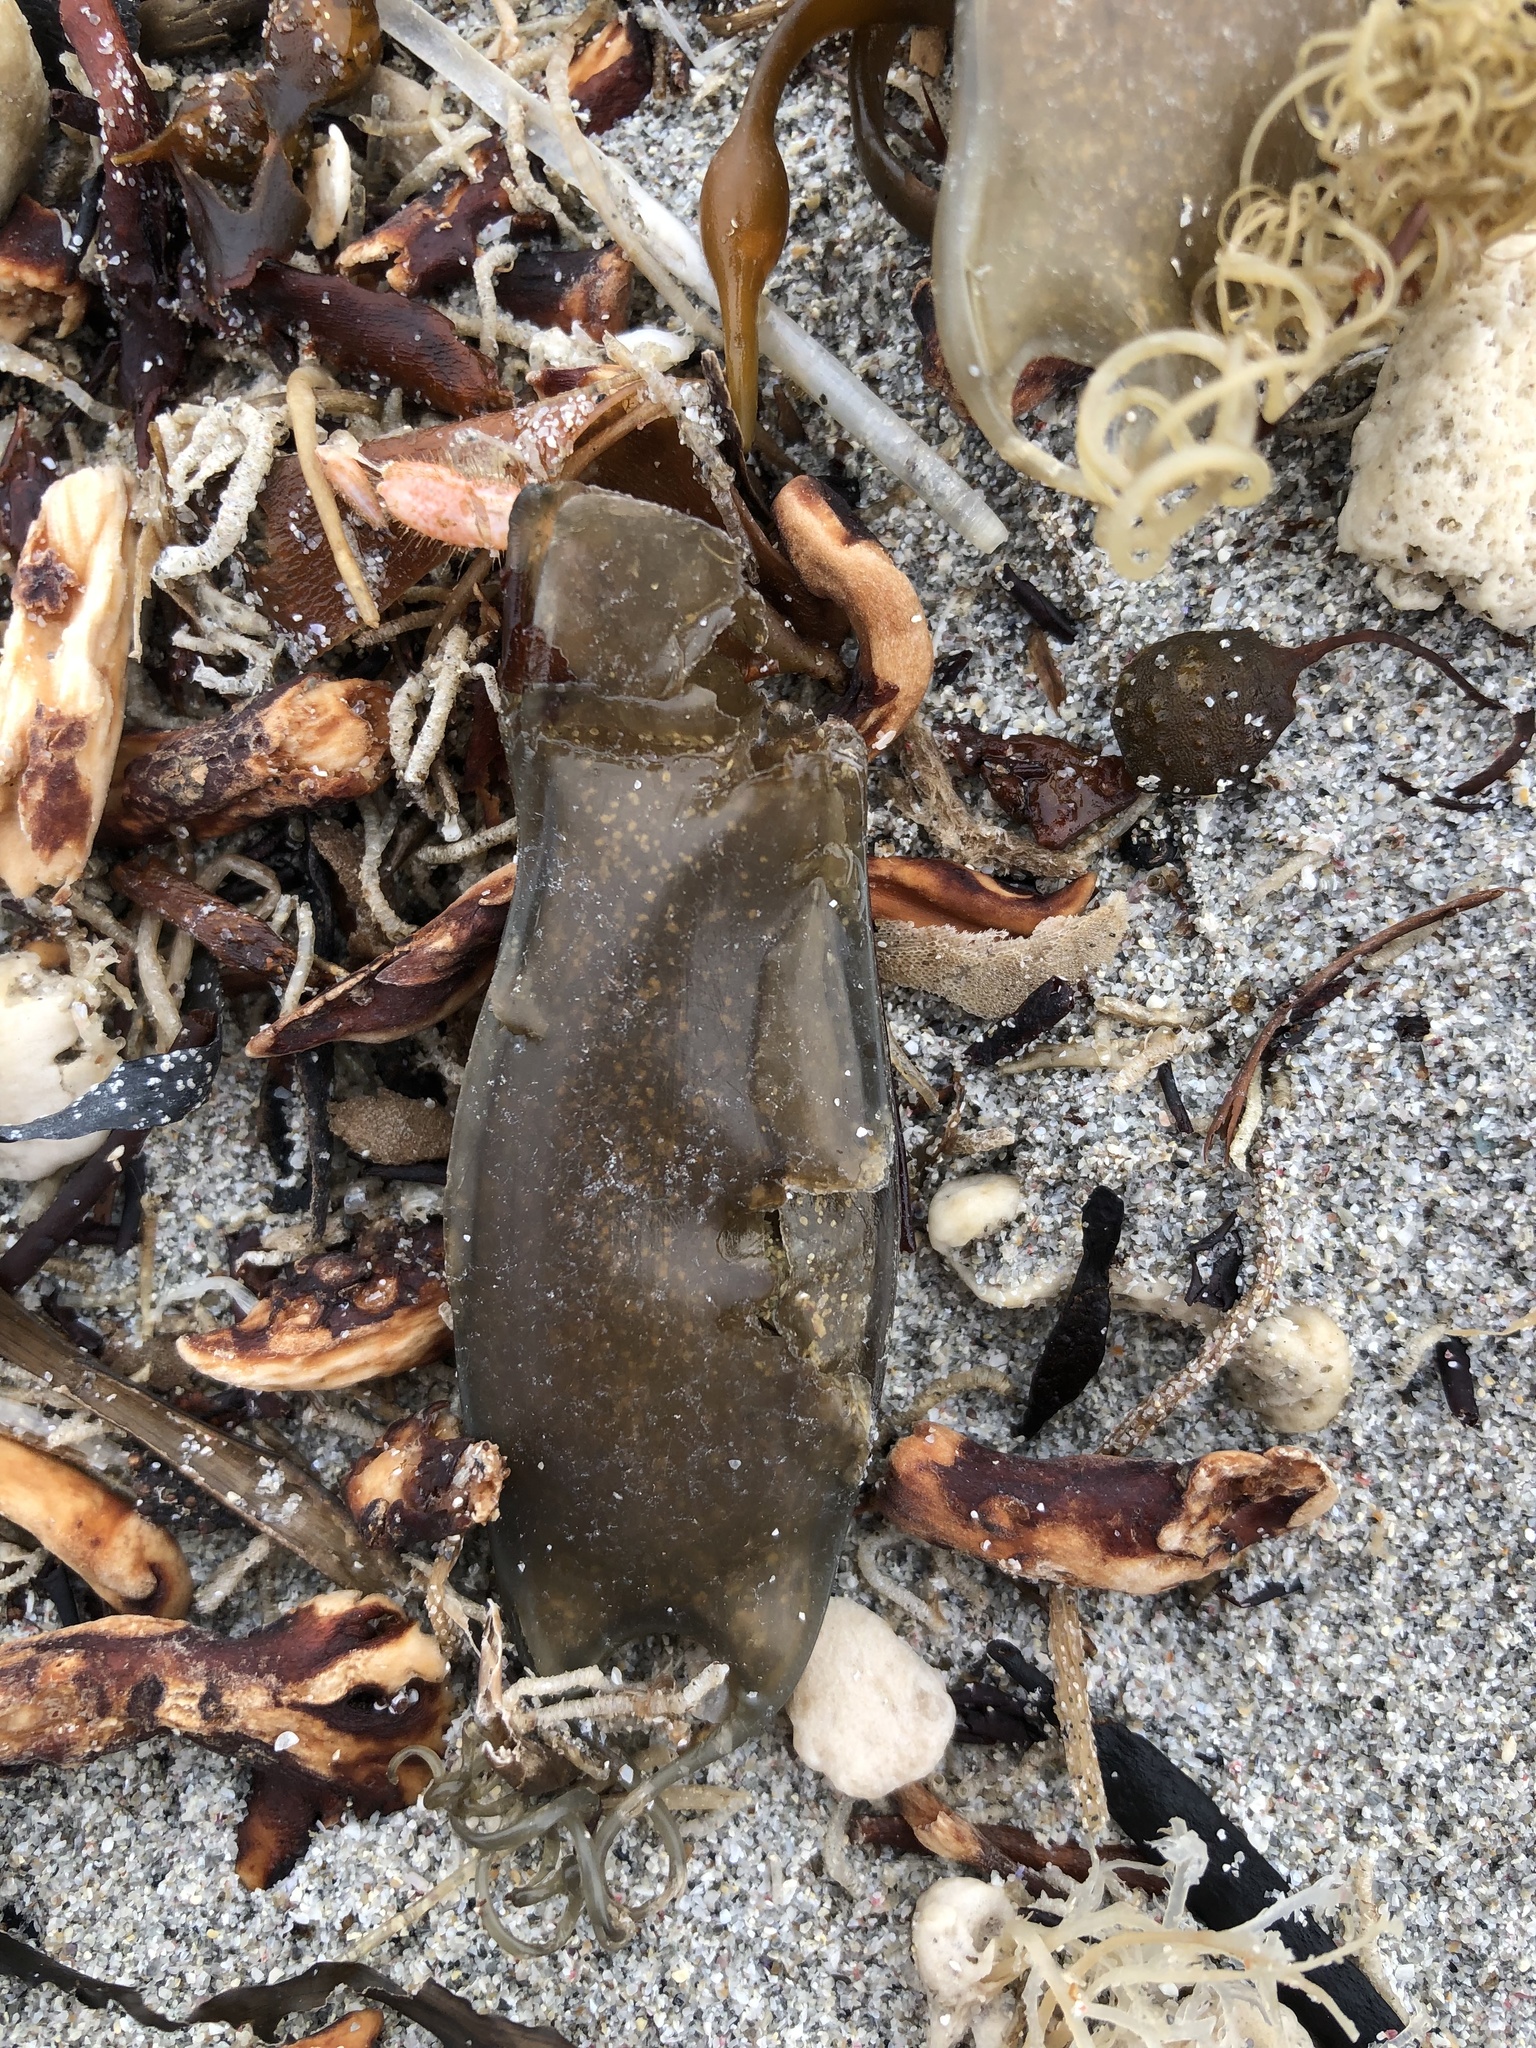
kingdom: Animalia
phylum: Chordata
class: Elasmobranchii
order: Carcharhiniformes
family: Scyliorhinidae
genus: Scyliorhinus
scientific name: Scyliorhinus canicula
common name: Lesser spotted dogfish
